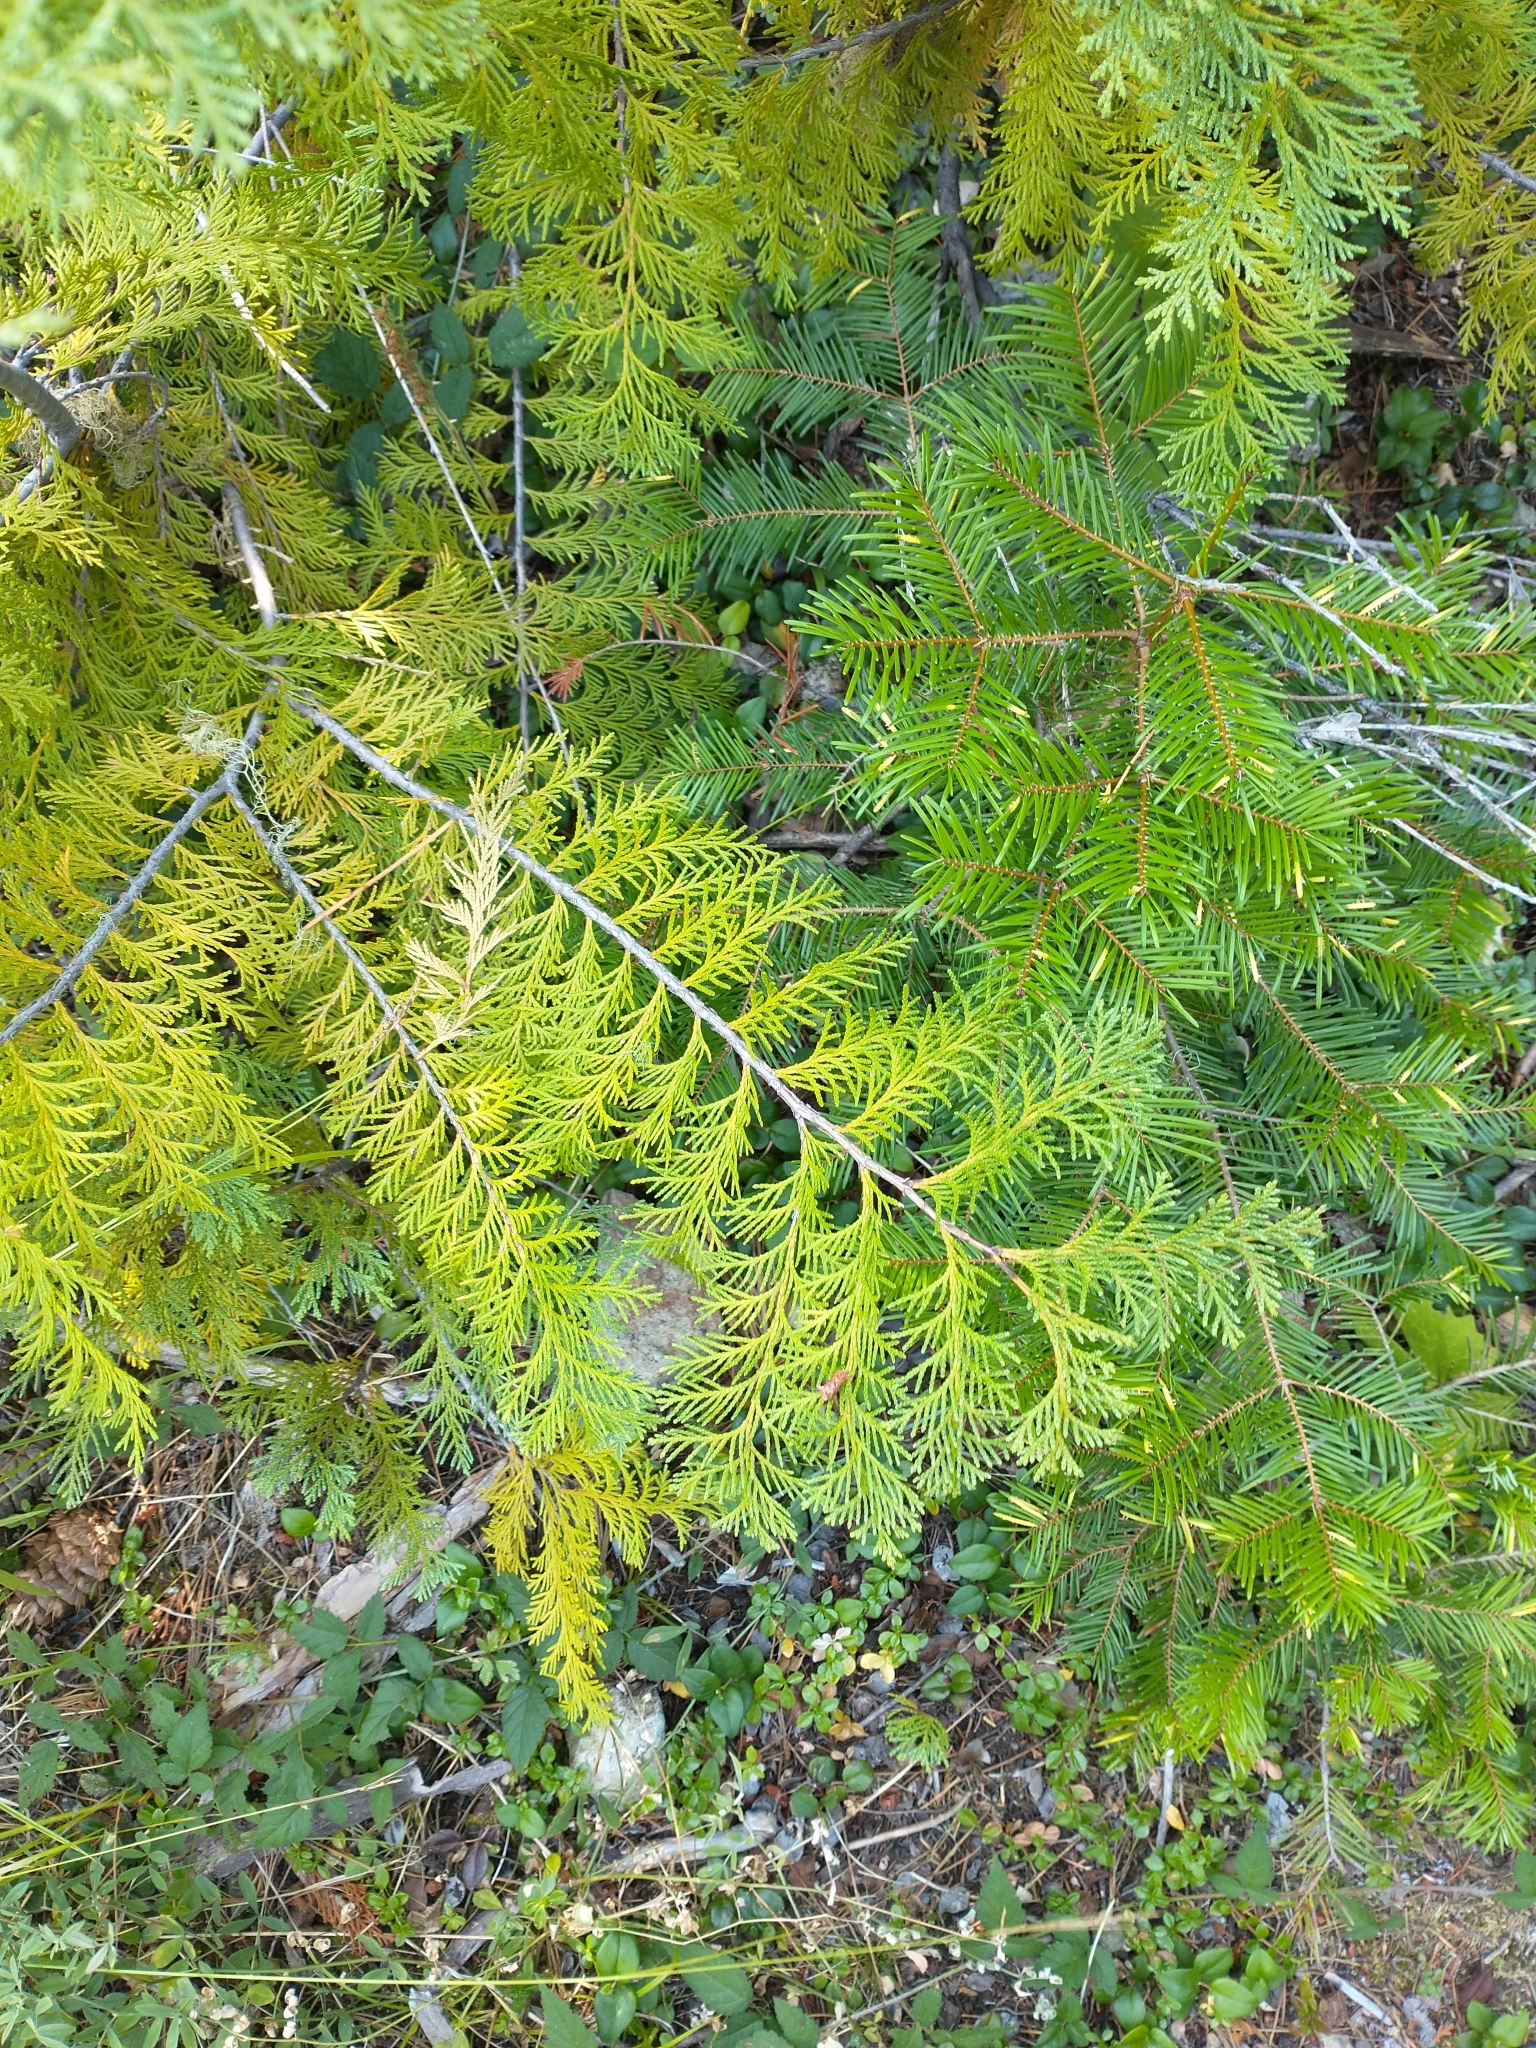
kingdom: Plantae
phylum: Tracheophyta
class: Pinopsida
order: Pinales
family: Cupressaceae
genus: Chamaecyparis
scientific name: Chamaecyparis lawsoniana
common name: Lawson's cypress
